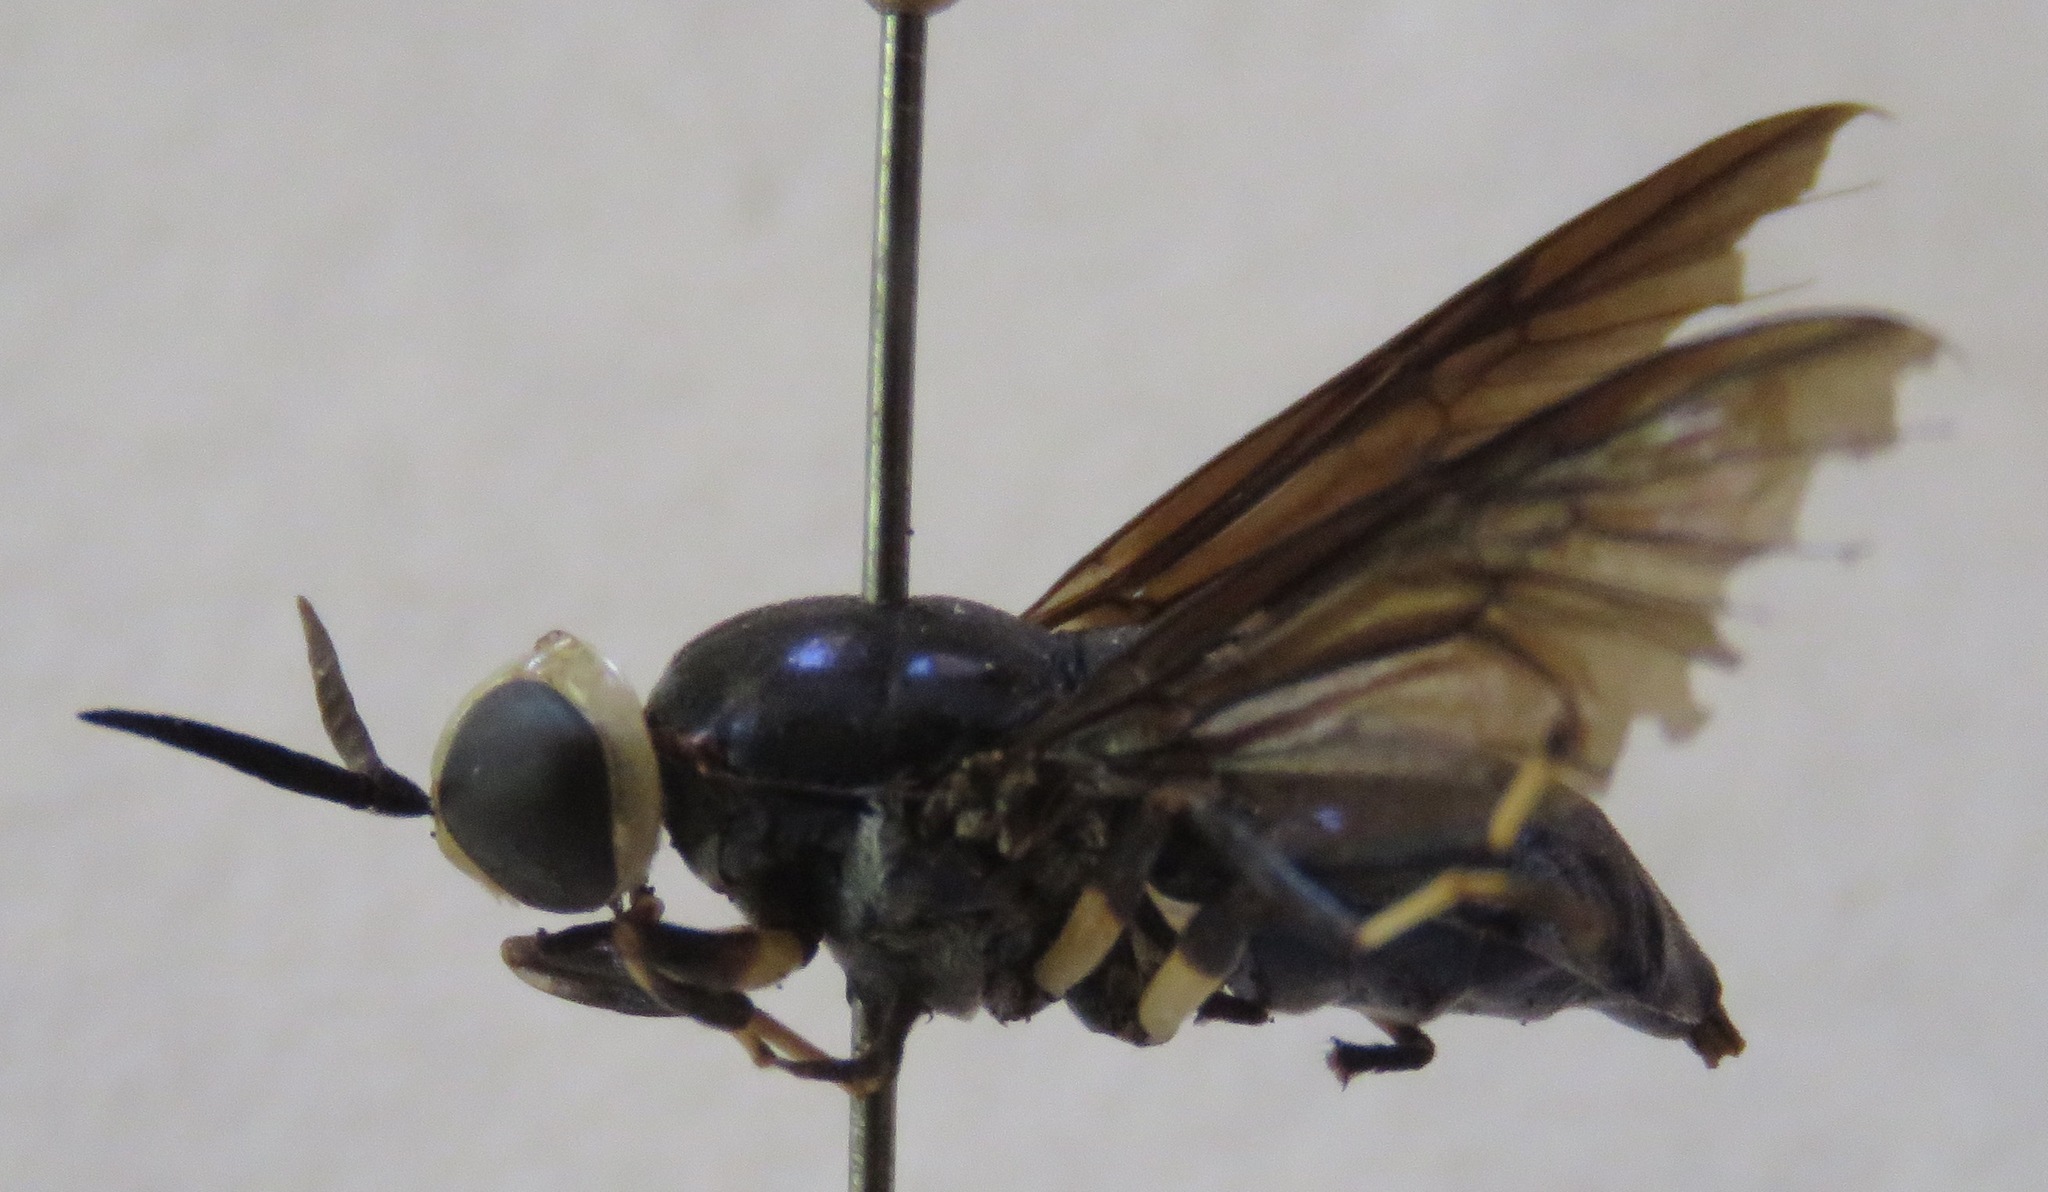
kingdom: Animalia
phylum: Arthropoda
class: Insecta
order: Diptera
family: Stratiomyidae
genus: Cyphomyia
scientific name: Cyphomyia varipes
